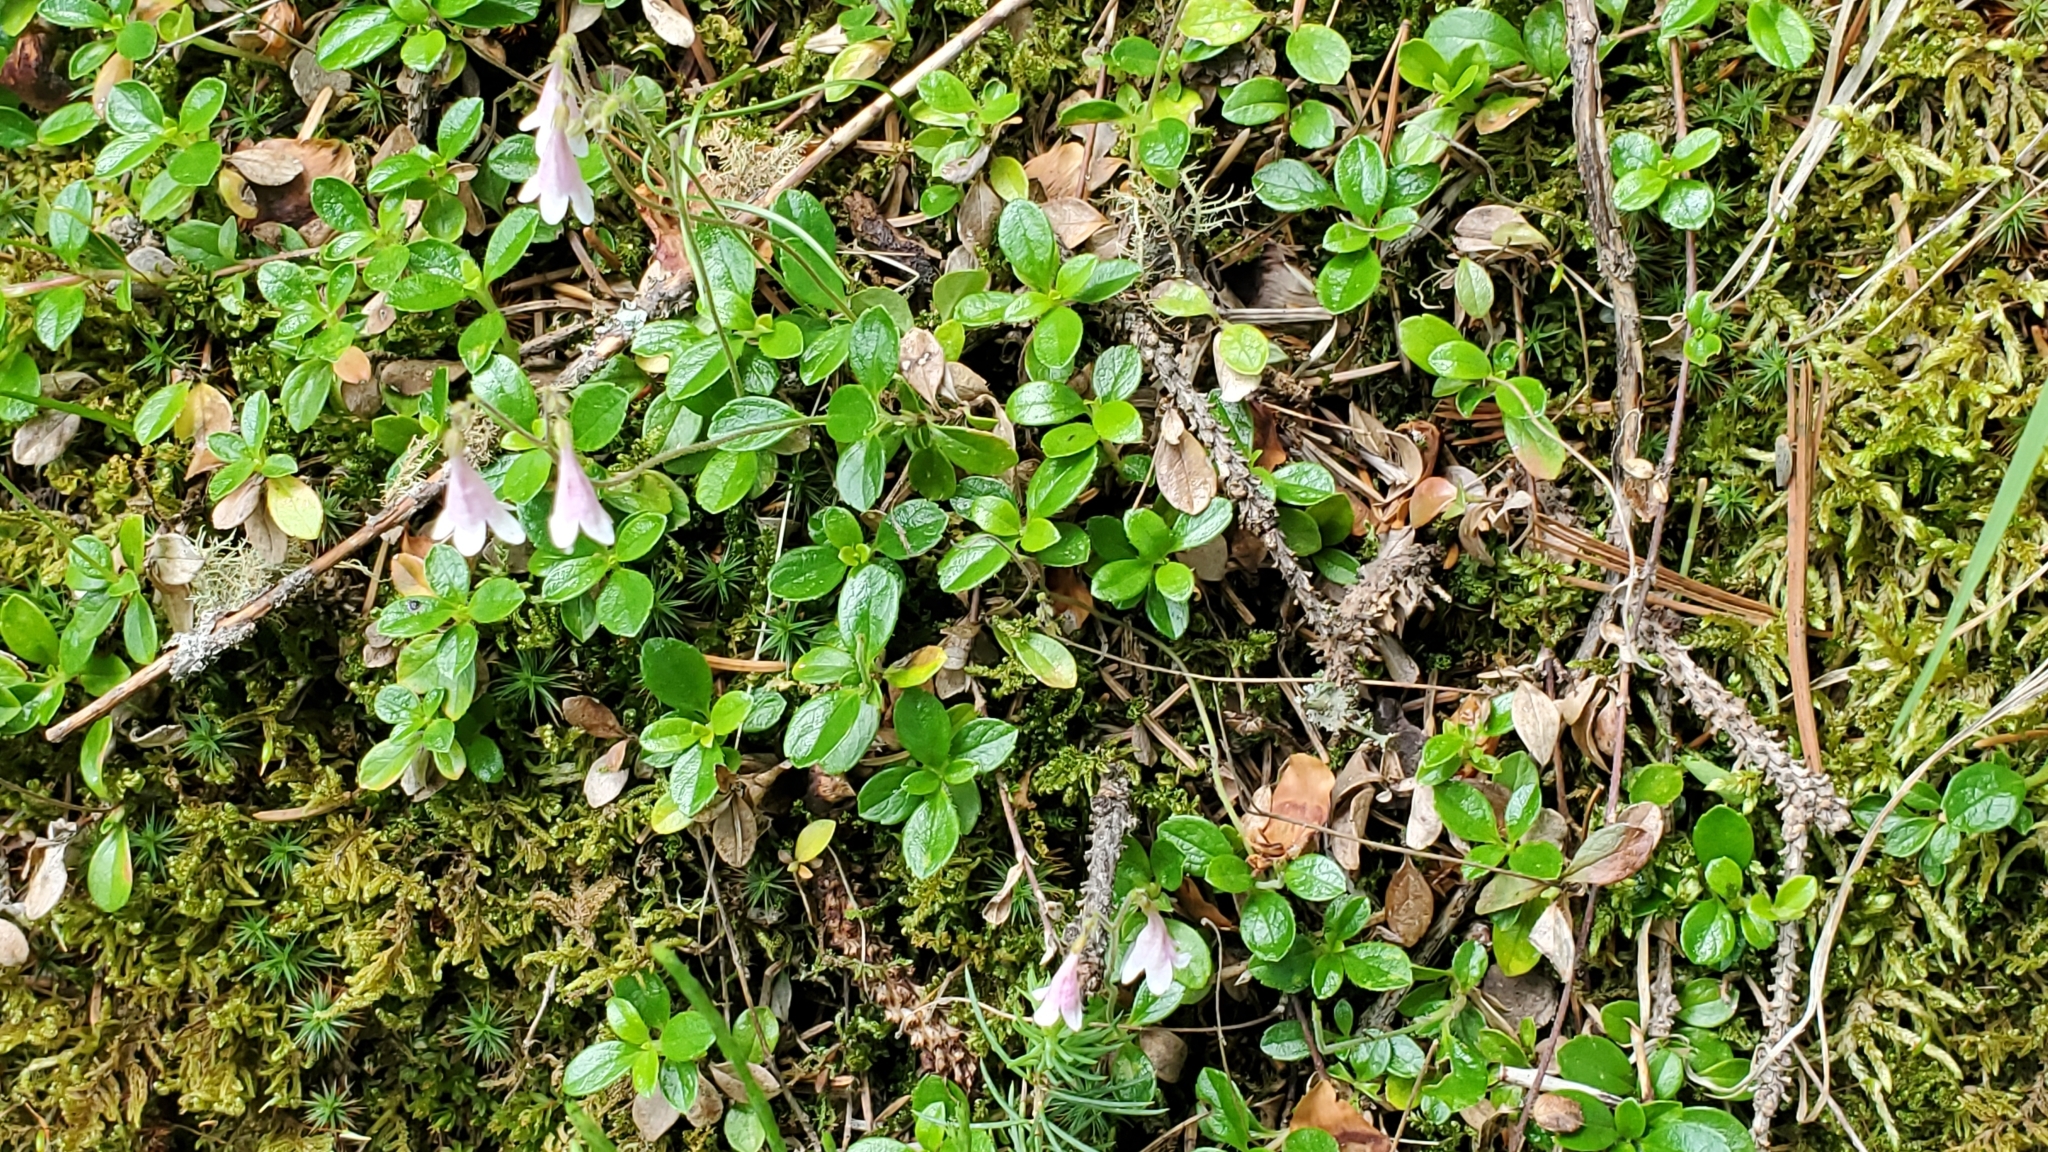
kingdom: Plantae
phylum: Tracheophyta
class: Magnoliopsida
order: Dipsacales
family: Caprifoliaceae
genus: Linnaea
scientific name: Linnaea borealis
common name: Twinflower
